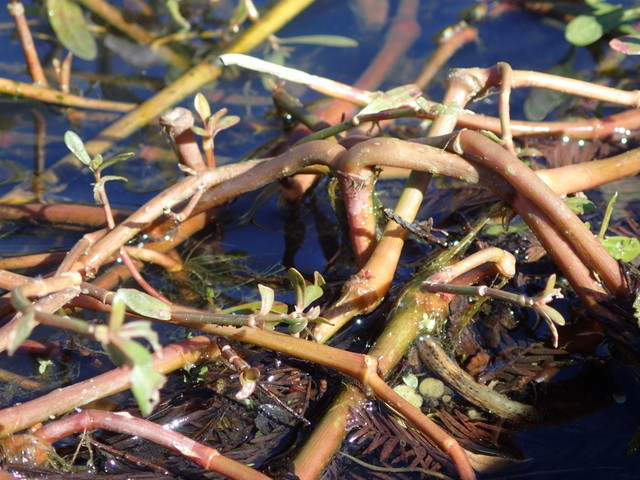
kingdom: Plantae
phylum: Tracheophyta
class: Magnoliopsida
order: Caryophyllales
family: Amaranthaceae
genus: Alternanthera
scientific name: Alternanthera philoxeroides
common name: Alligatorweed
